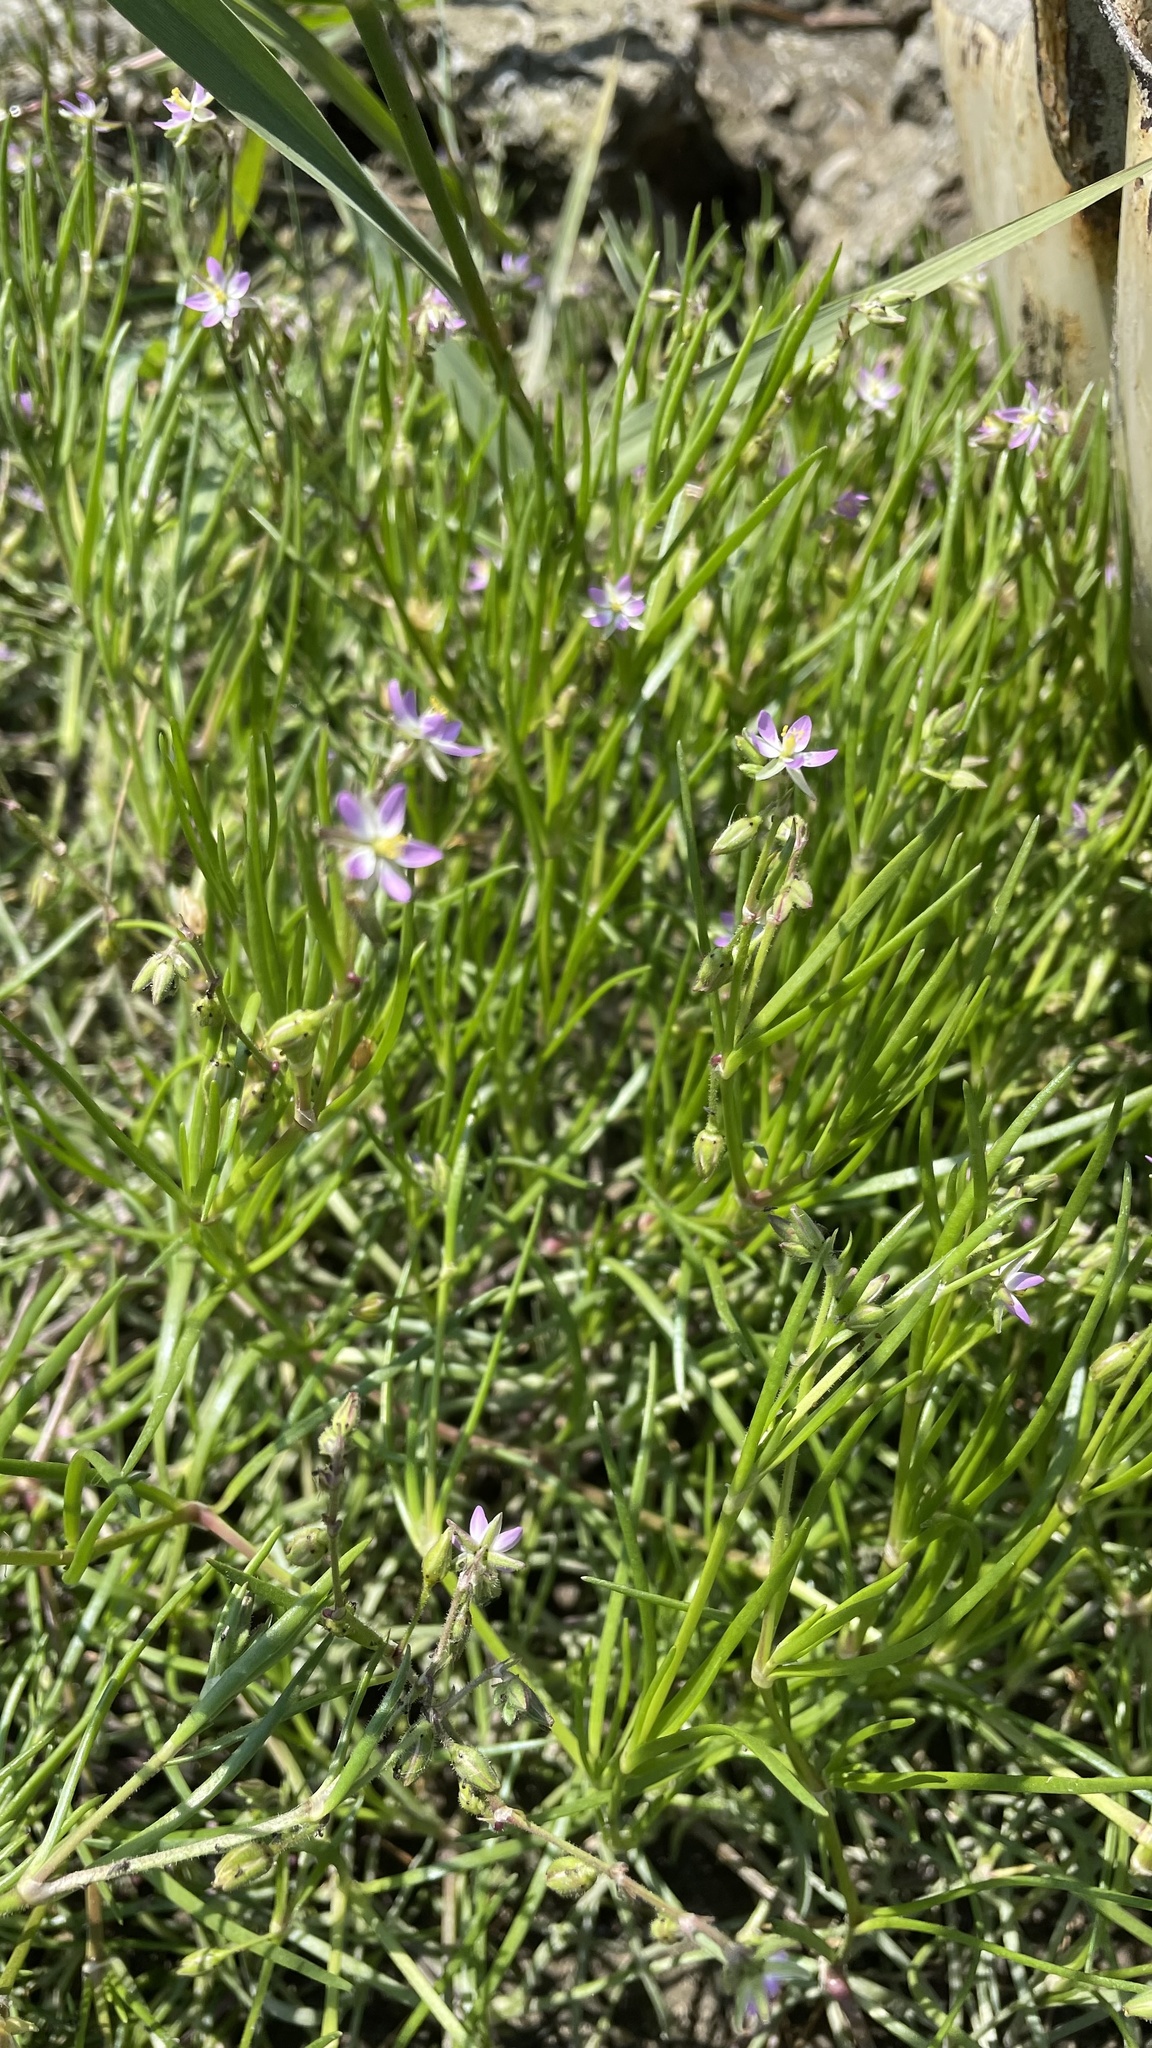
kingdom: Plantae
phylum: Tracheophyta
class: Magnoliopsida
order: Caryophyllales
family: Caryophyllaceae
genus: Spergularia
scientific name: Spergularia marina
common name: Lesser sea-spurrey
